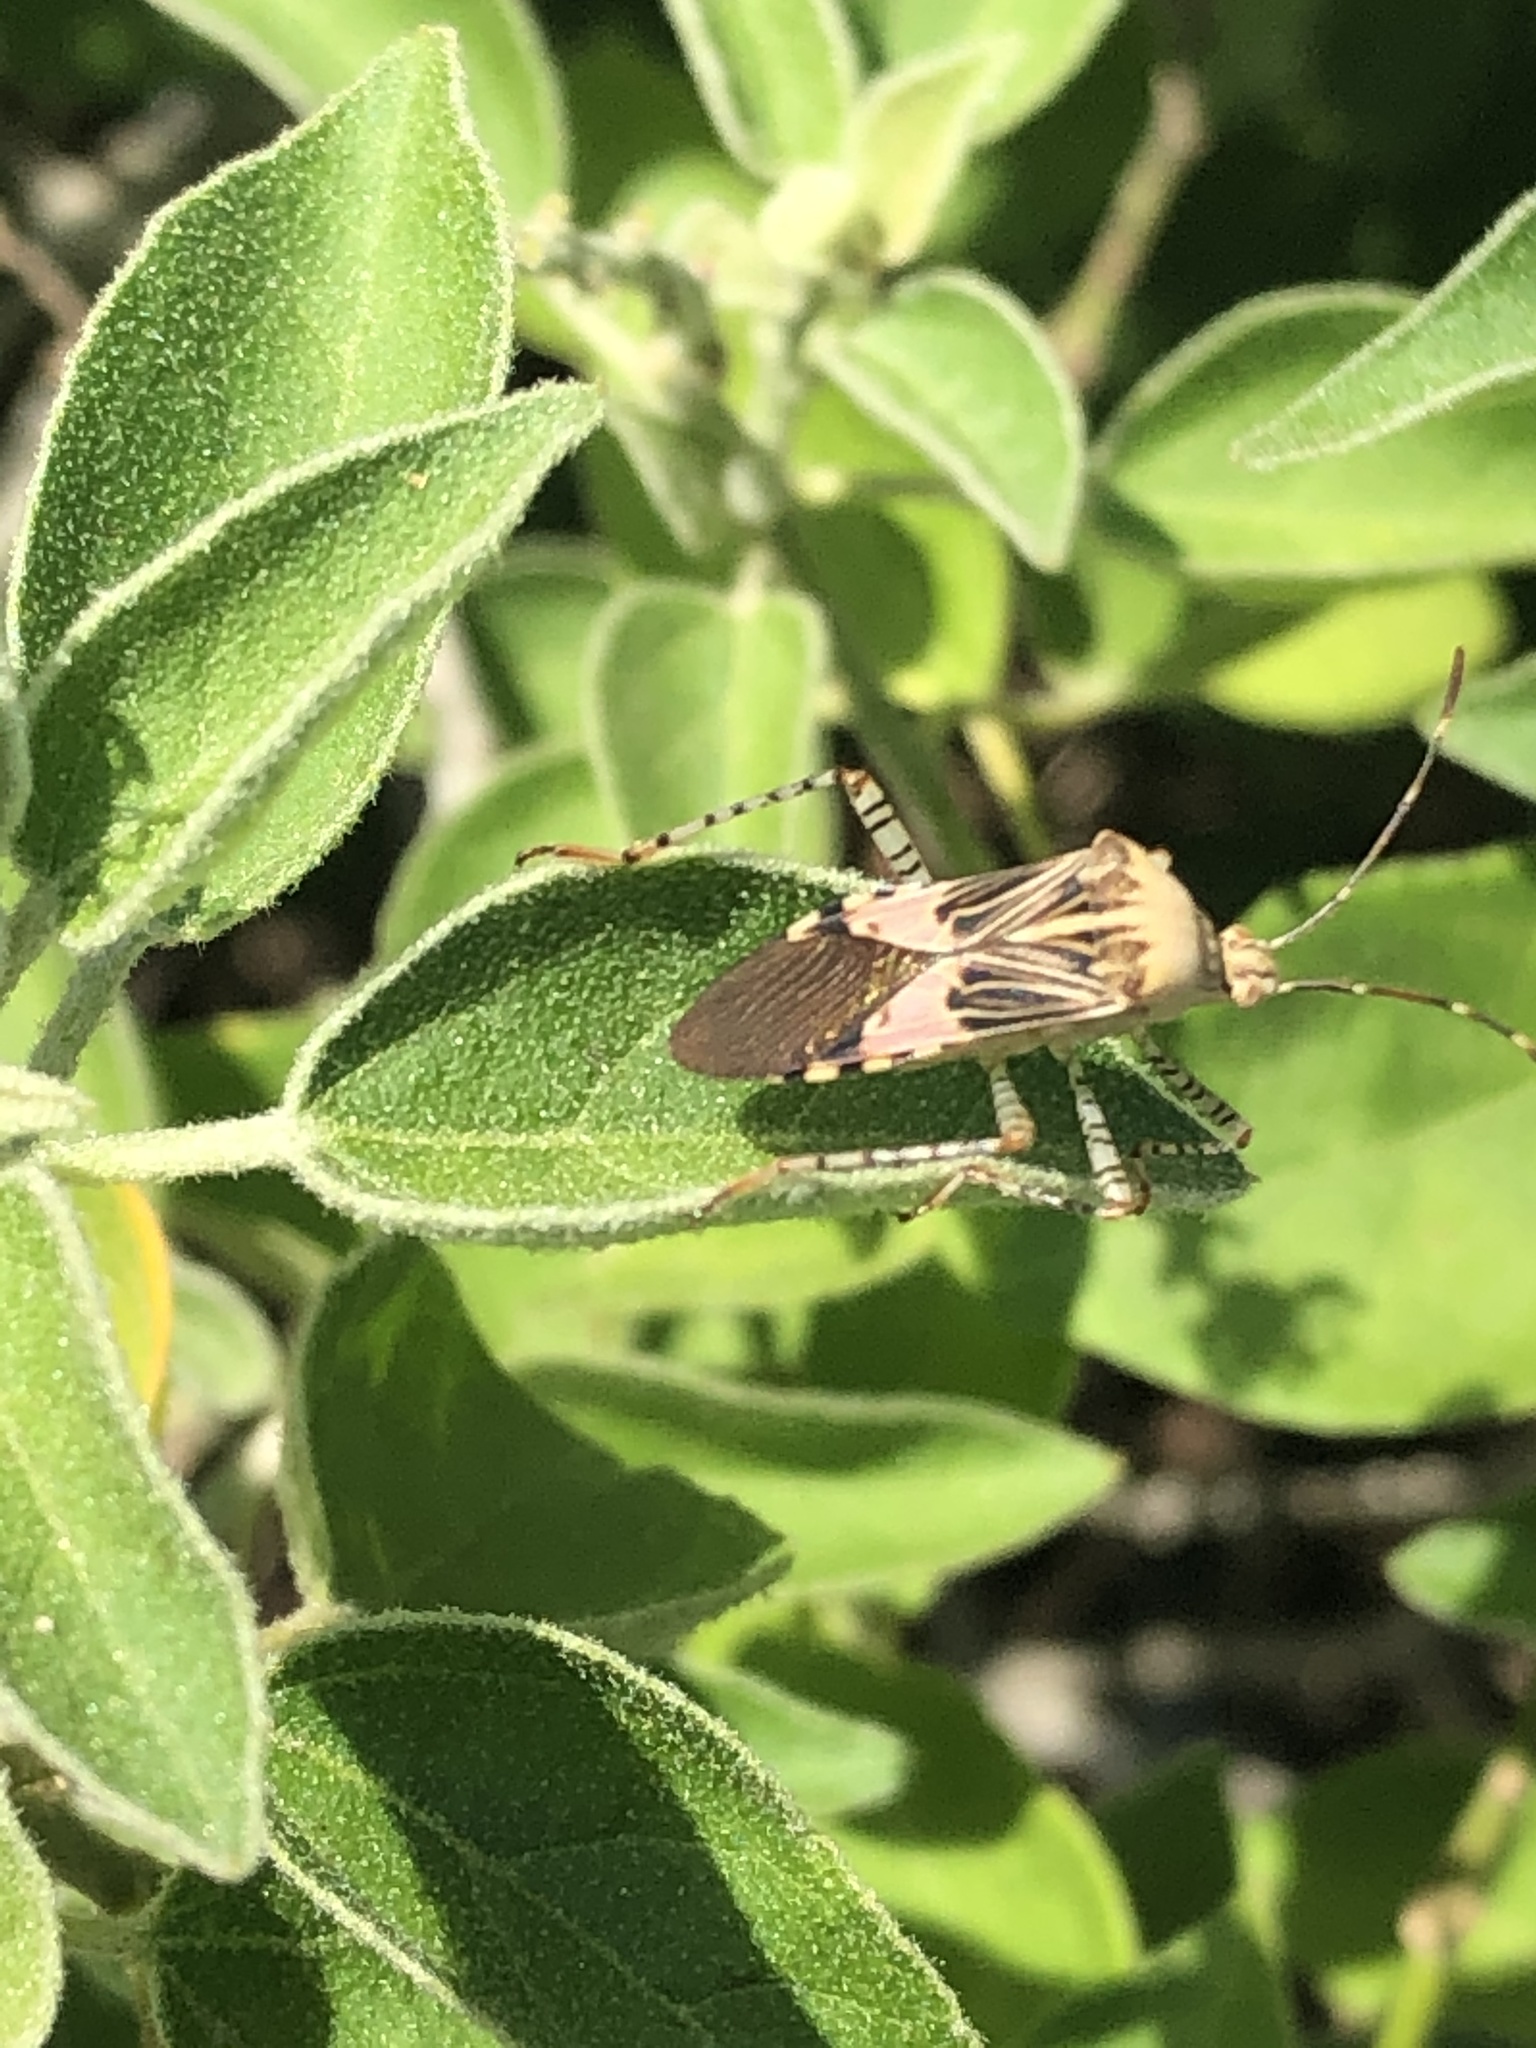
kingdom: Animalia
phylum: Arthropoda
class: Insecta
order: Hemiptera
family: Coreidae
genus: Hypselonotus
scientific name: Hypselonotus punctiventris
